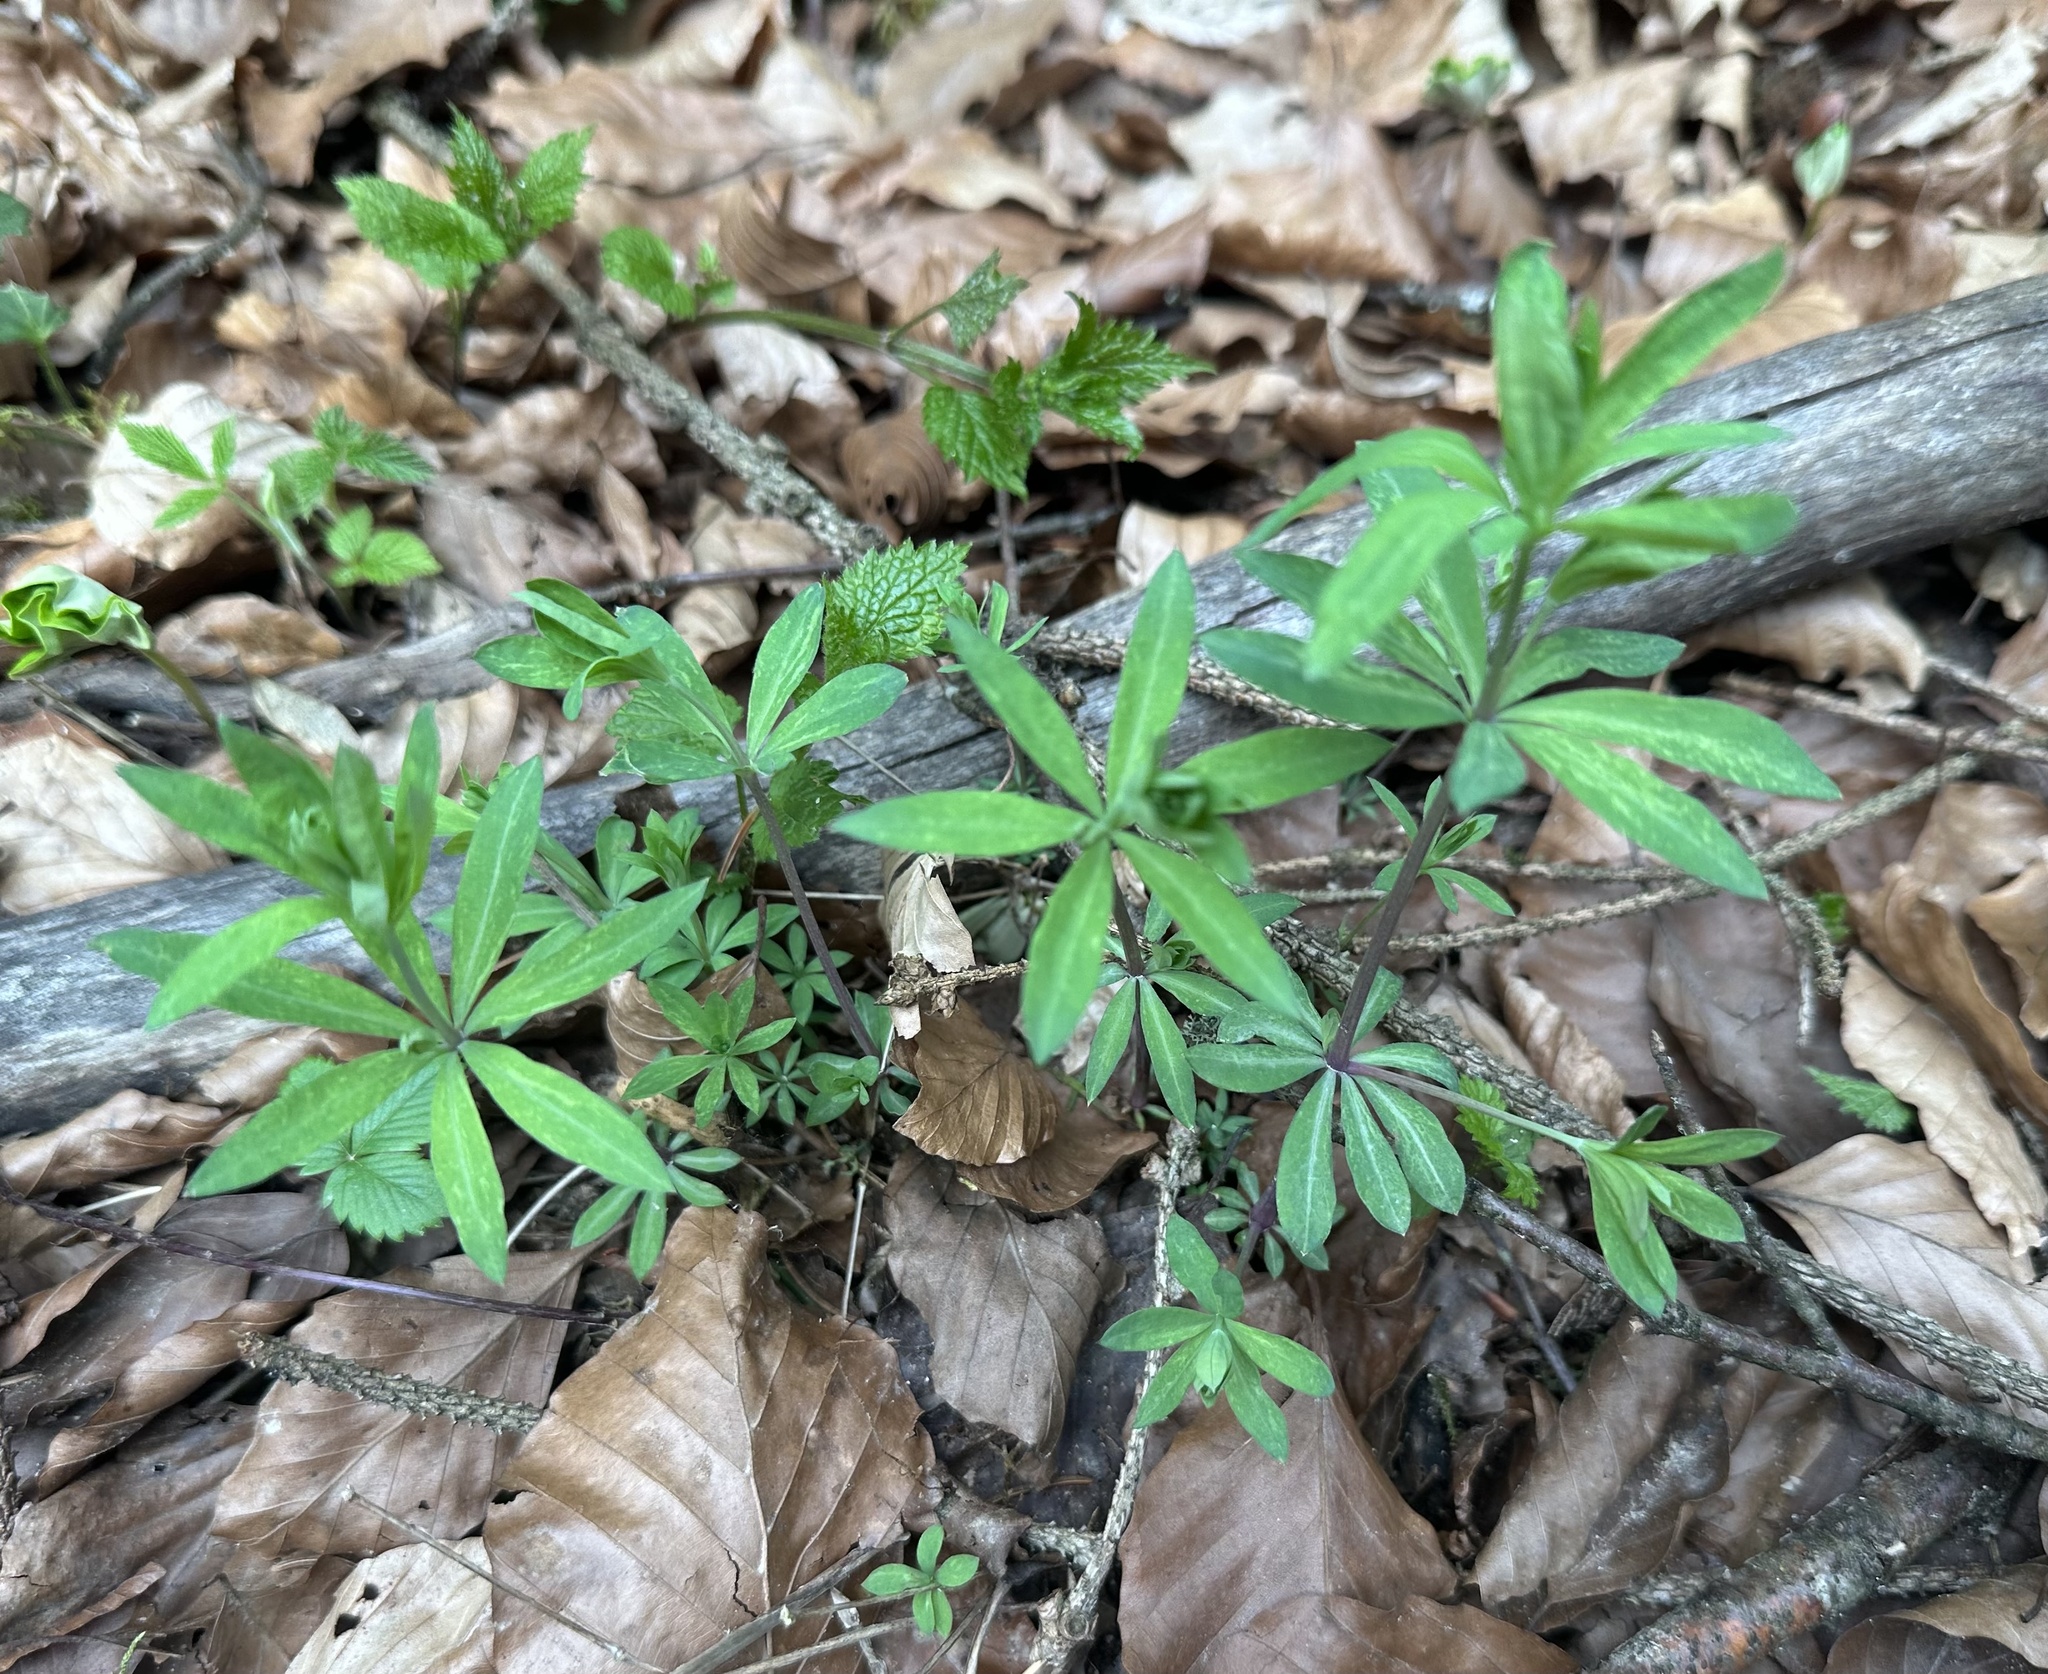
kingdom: Plantae
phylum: Tracheophyta
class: Magnoliopsida
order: Gentianales
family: Rubiaceae
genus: Galium
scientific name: Galium sylvaticum
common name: Wood bedstraw
